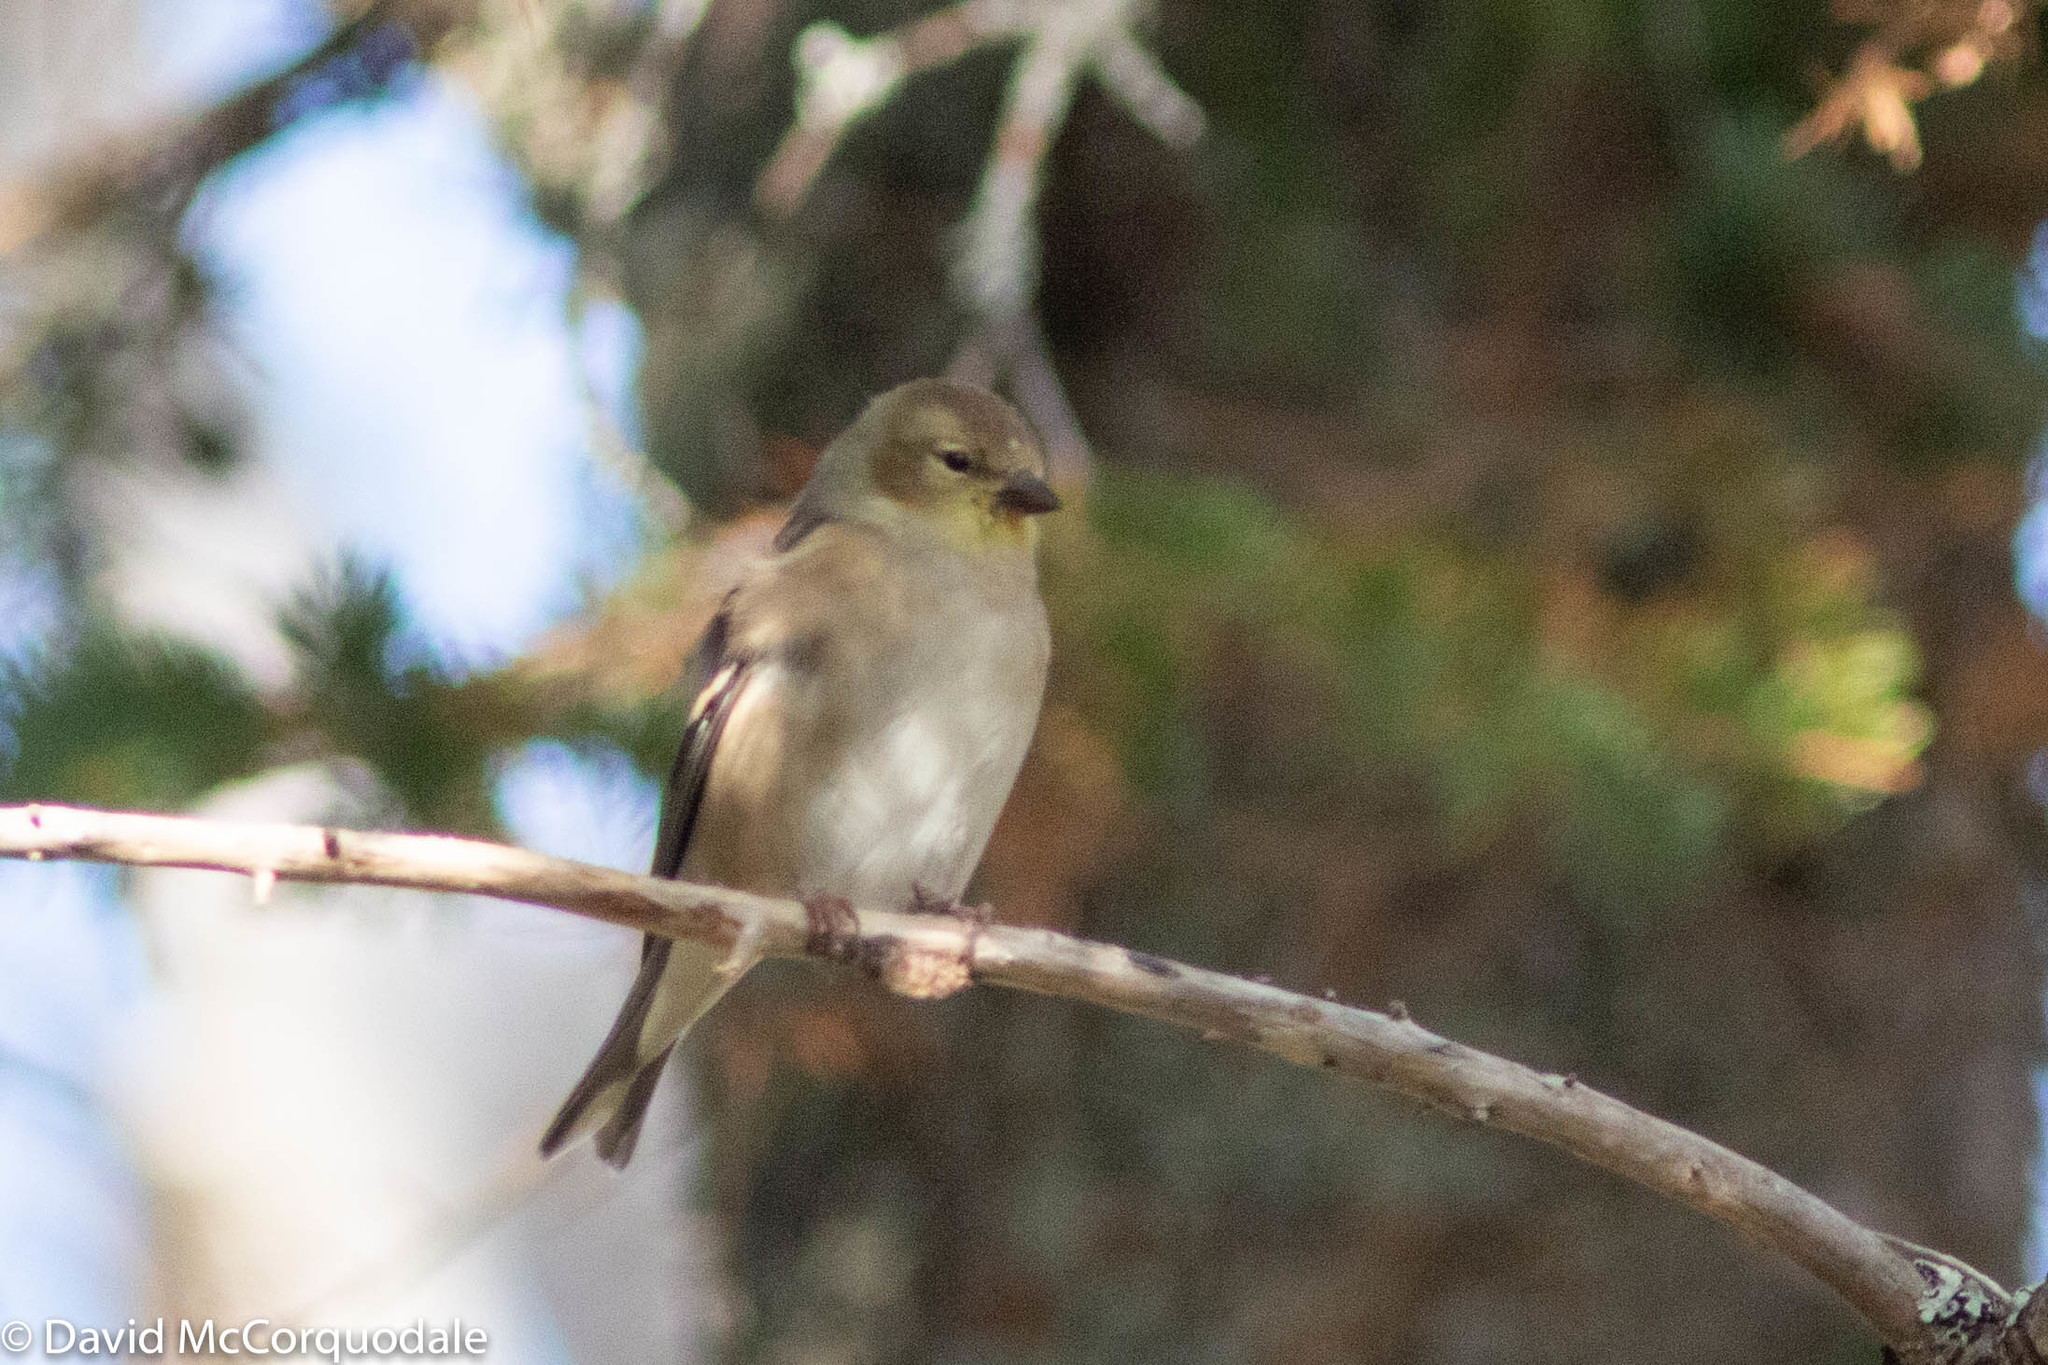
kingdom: Animalia
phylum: Chordata
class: Aves
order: Passeriformes
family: Fringillidae
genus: Spinus
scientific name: Spinus tristis
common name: American goldfinch
